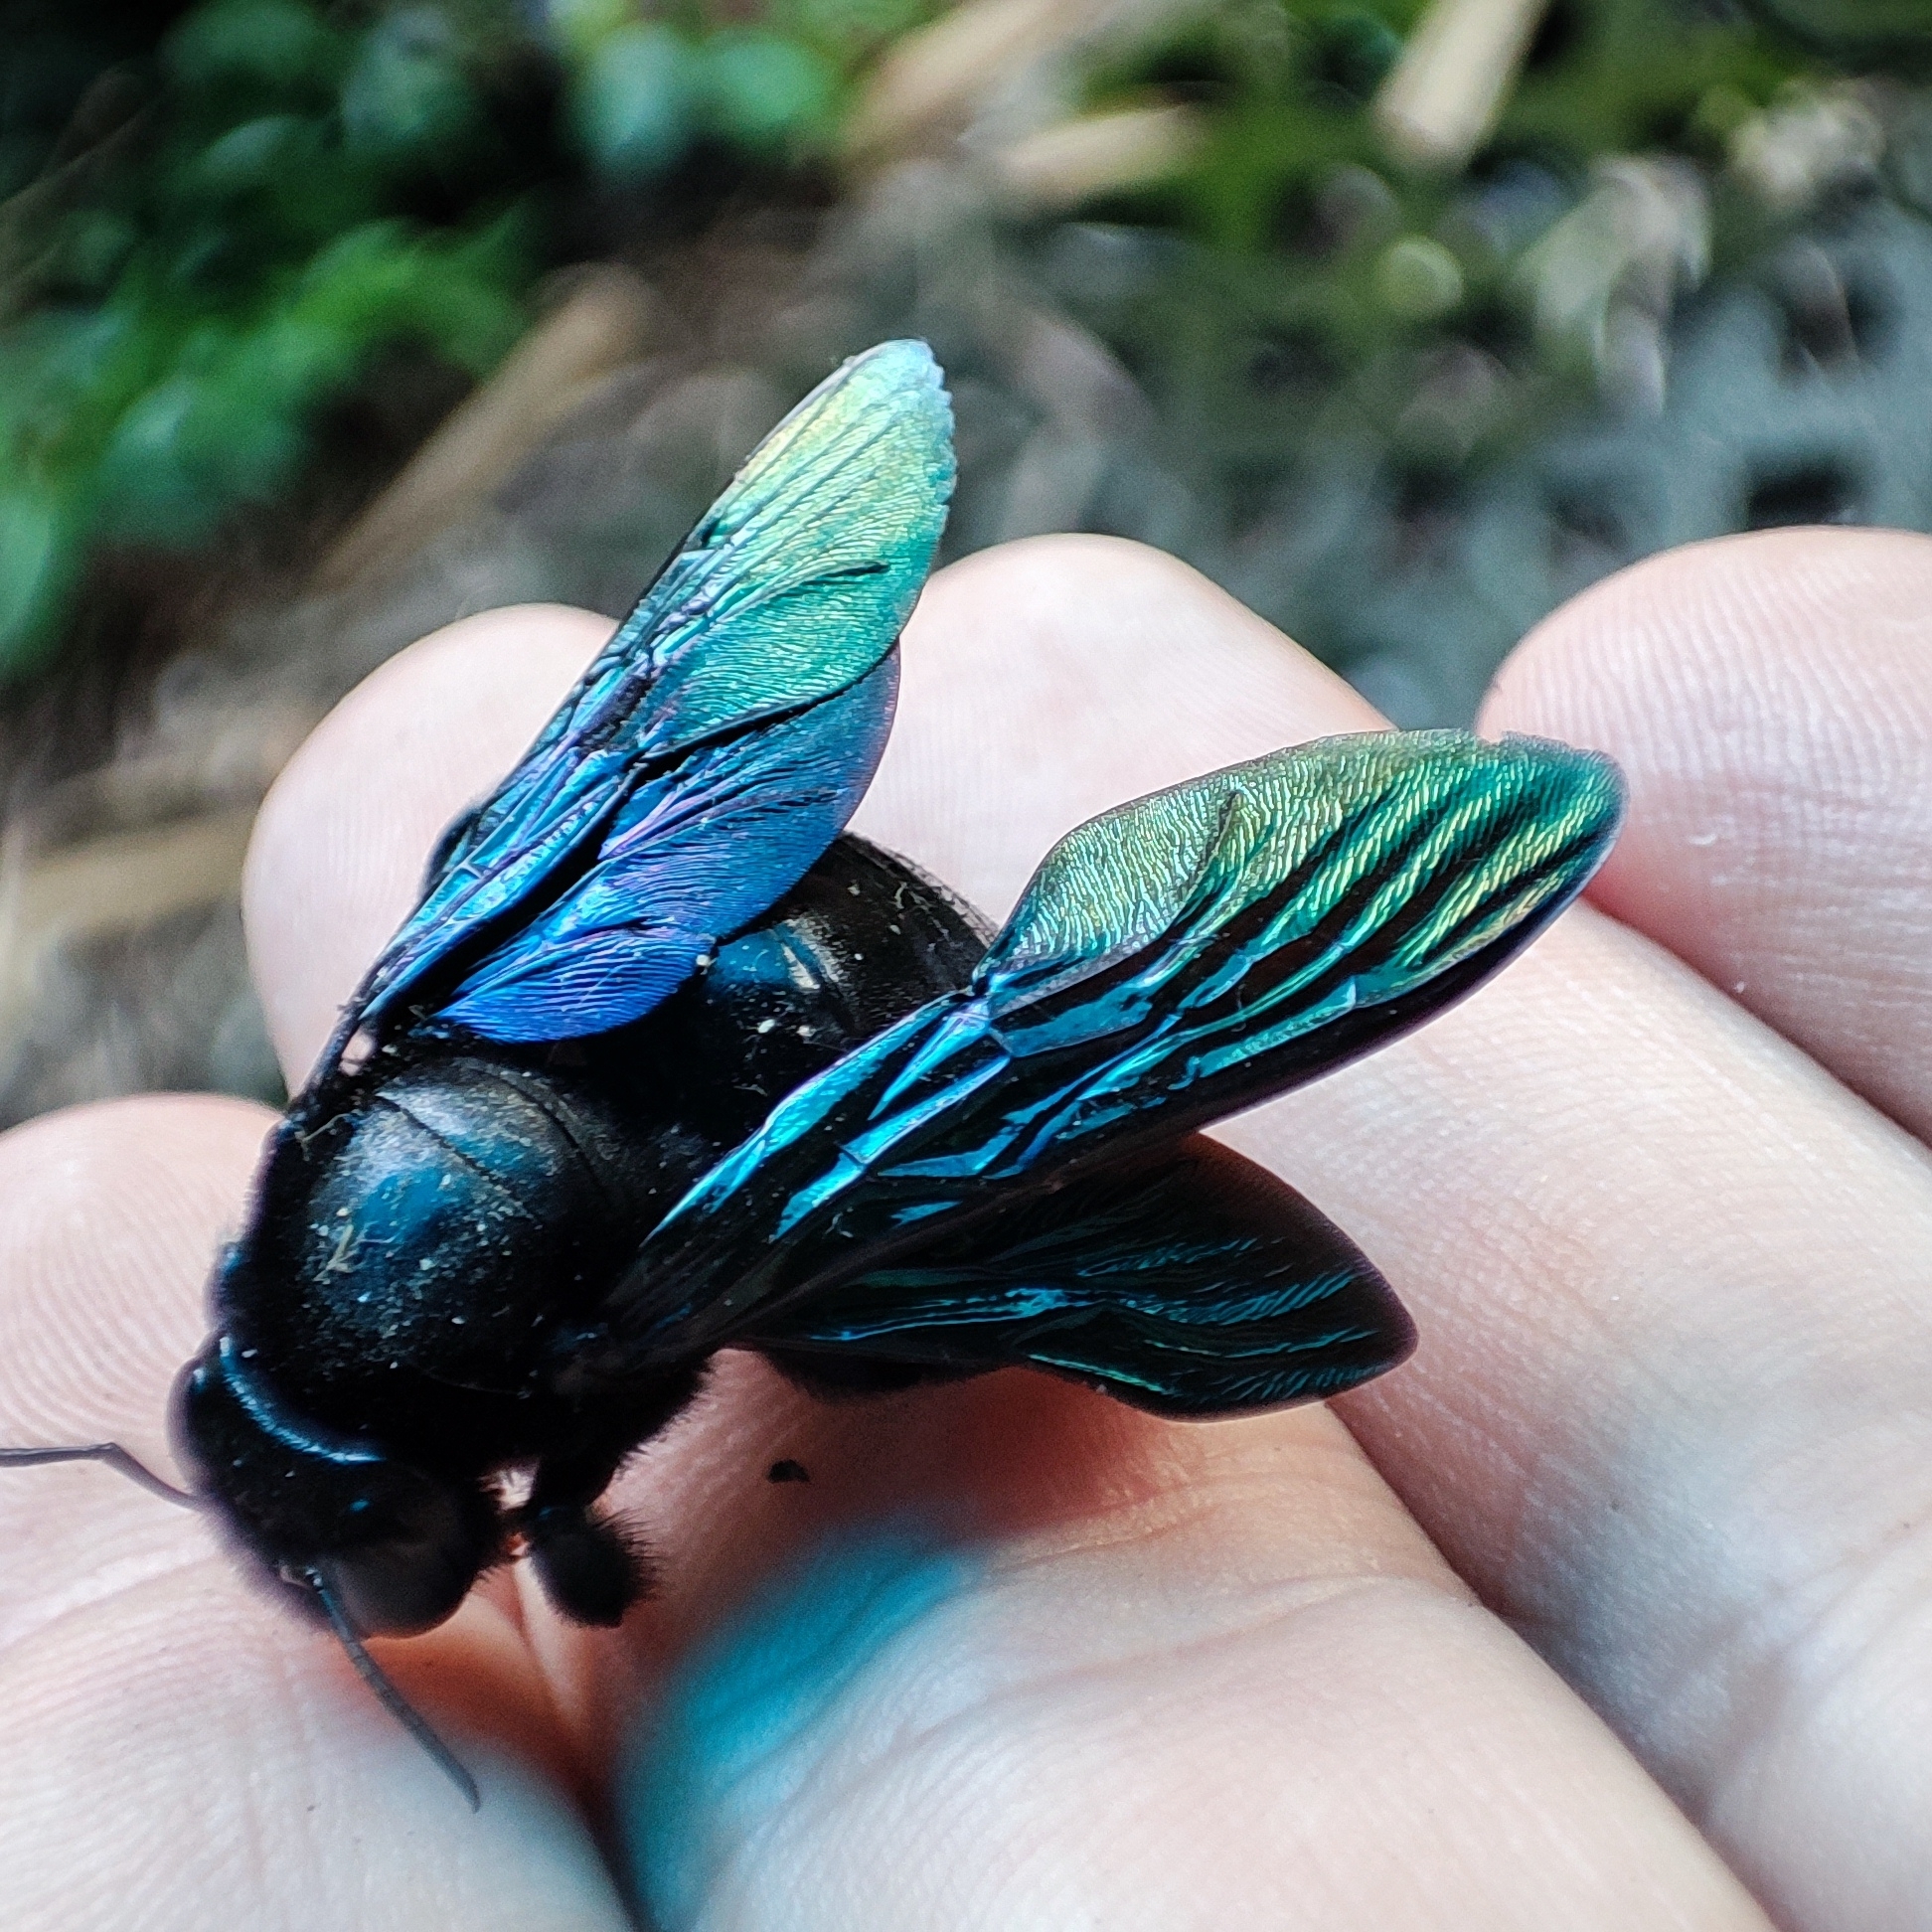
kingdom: Animalia
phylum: Arthropoda
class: Insecta
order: Hymenoptera
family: Apidae
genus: Xylocopa
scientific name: Xylocopa nasalis
